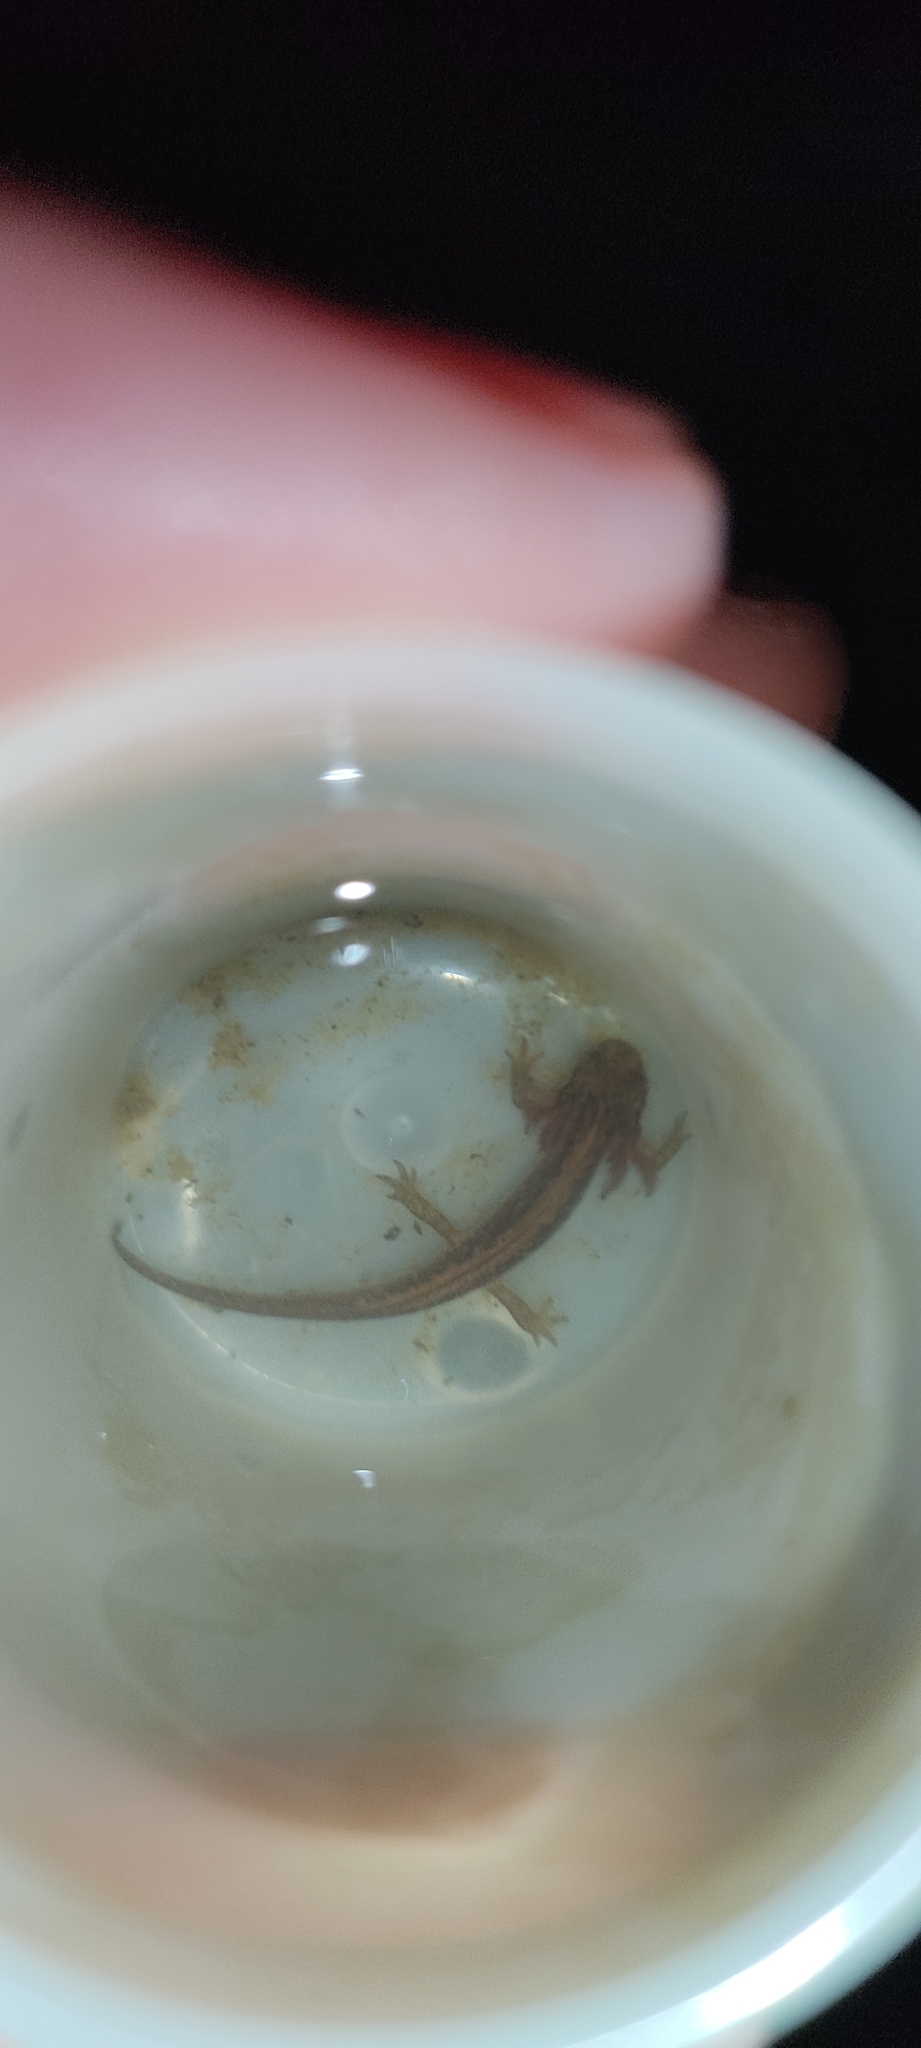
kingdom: Animalia
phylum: Chordata
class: Amphibia
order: Caudata
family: Salamandridae
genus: Lissotriton
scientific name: Lissotriton helveticus
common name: Palmate newt
